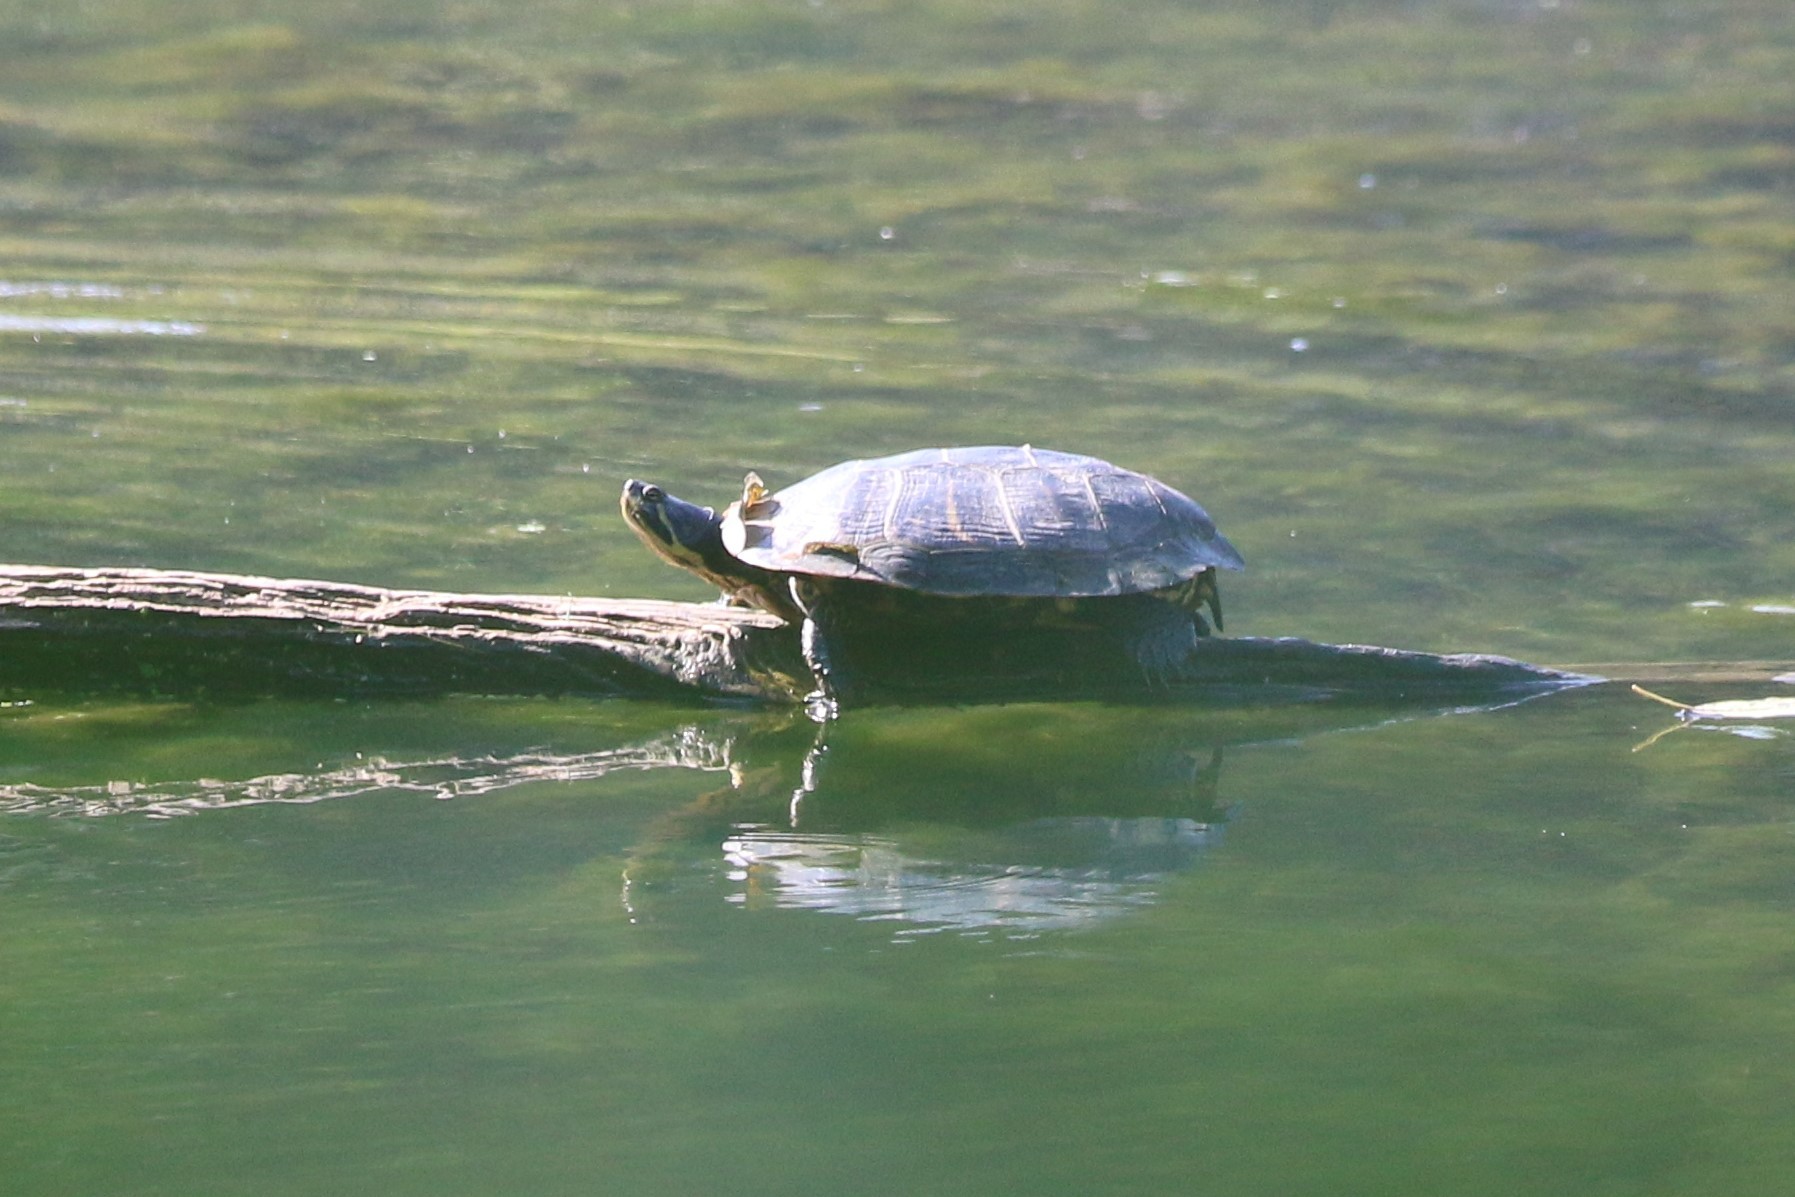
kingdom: Animalia
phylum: Chordata
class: Testudines
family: Emydidae
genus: Trachemys
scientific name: Trachemys scripta
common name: Slider
